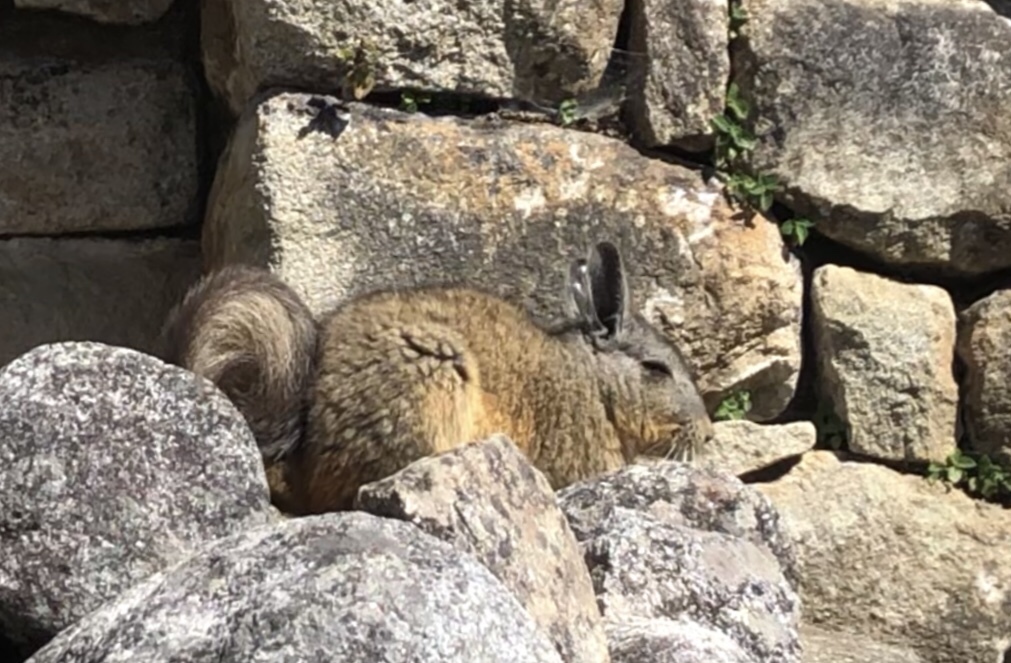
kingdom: Animalia
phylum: Chordata
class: Mammalia
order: Rodentia
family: Chinchillidae
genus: Lagidium
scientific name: Lagidium viscacia
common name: Southern viscacha
